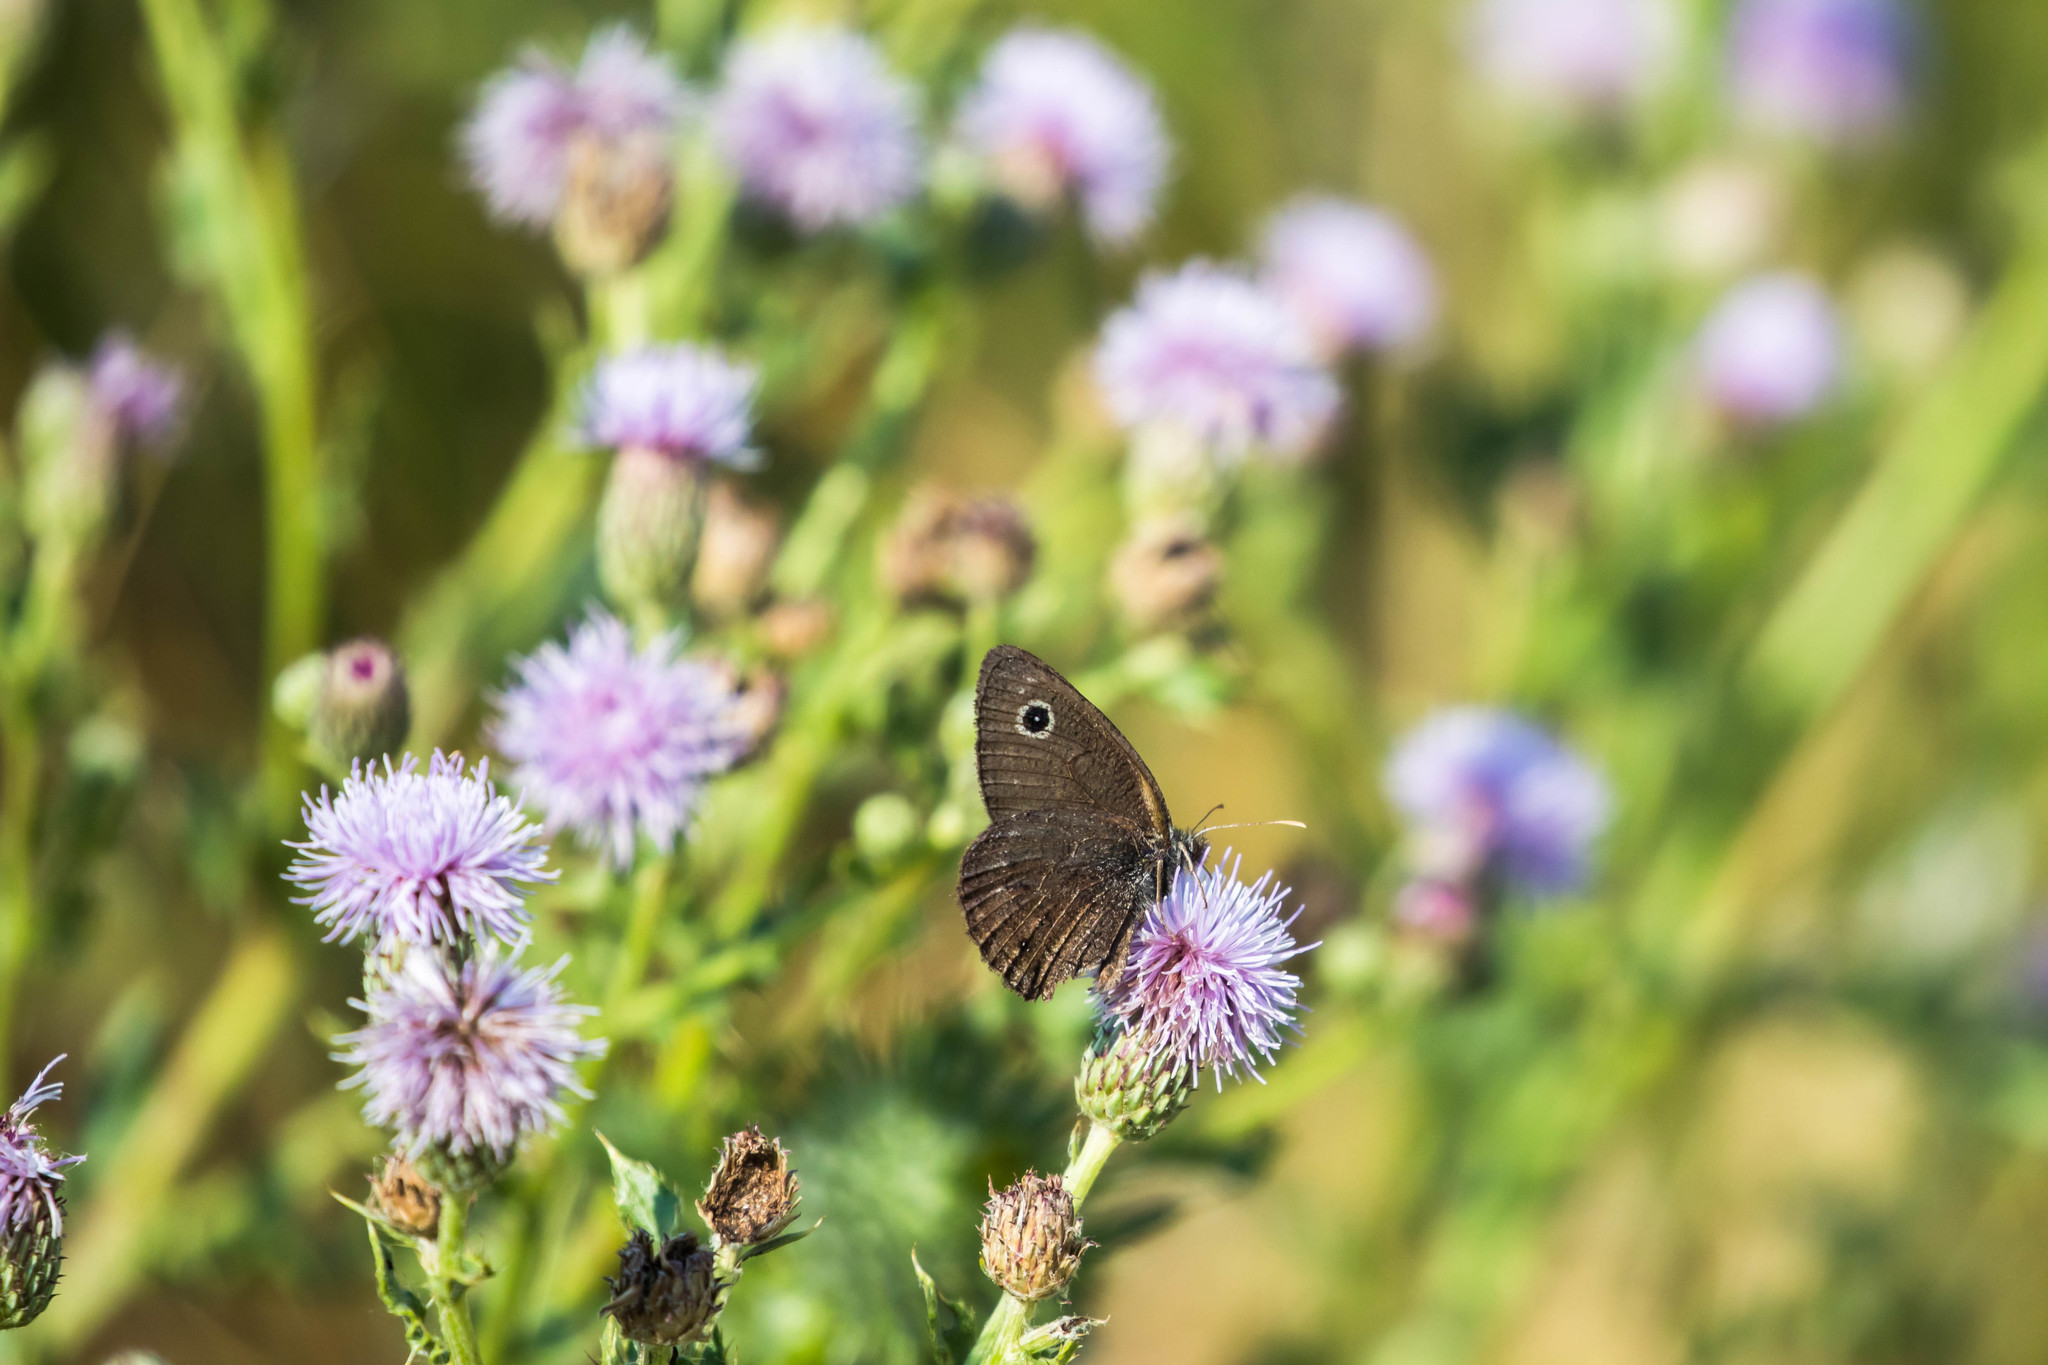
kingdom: Animalia
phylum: Arthropoda
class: Insecta
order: Lepidoptera
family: Nymphalidae
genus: Cercyonis
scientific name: Cercyonis oetus
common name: Small wood-nymph
